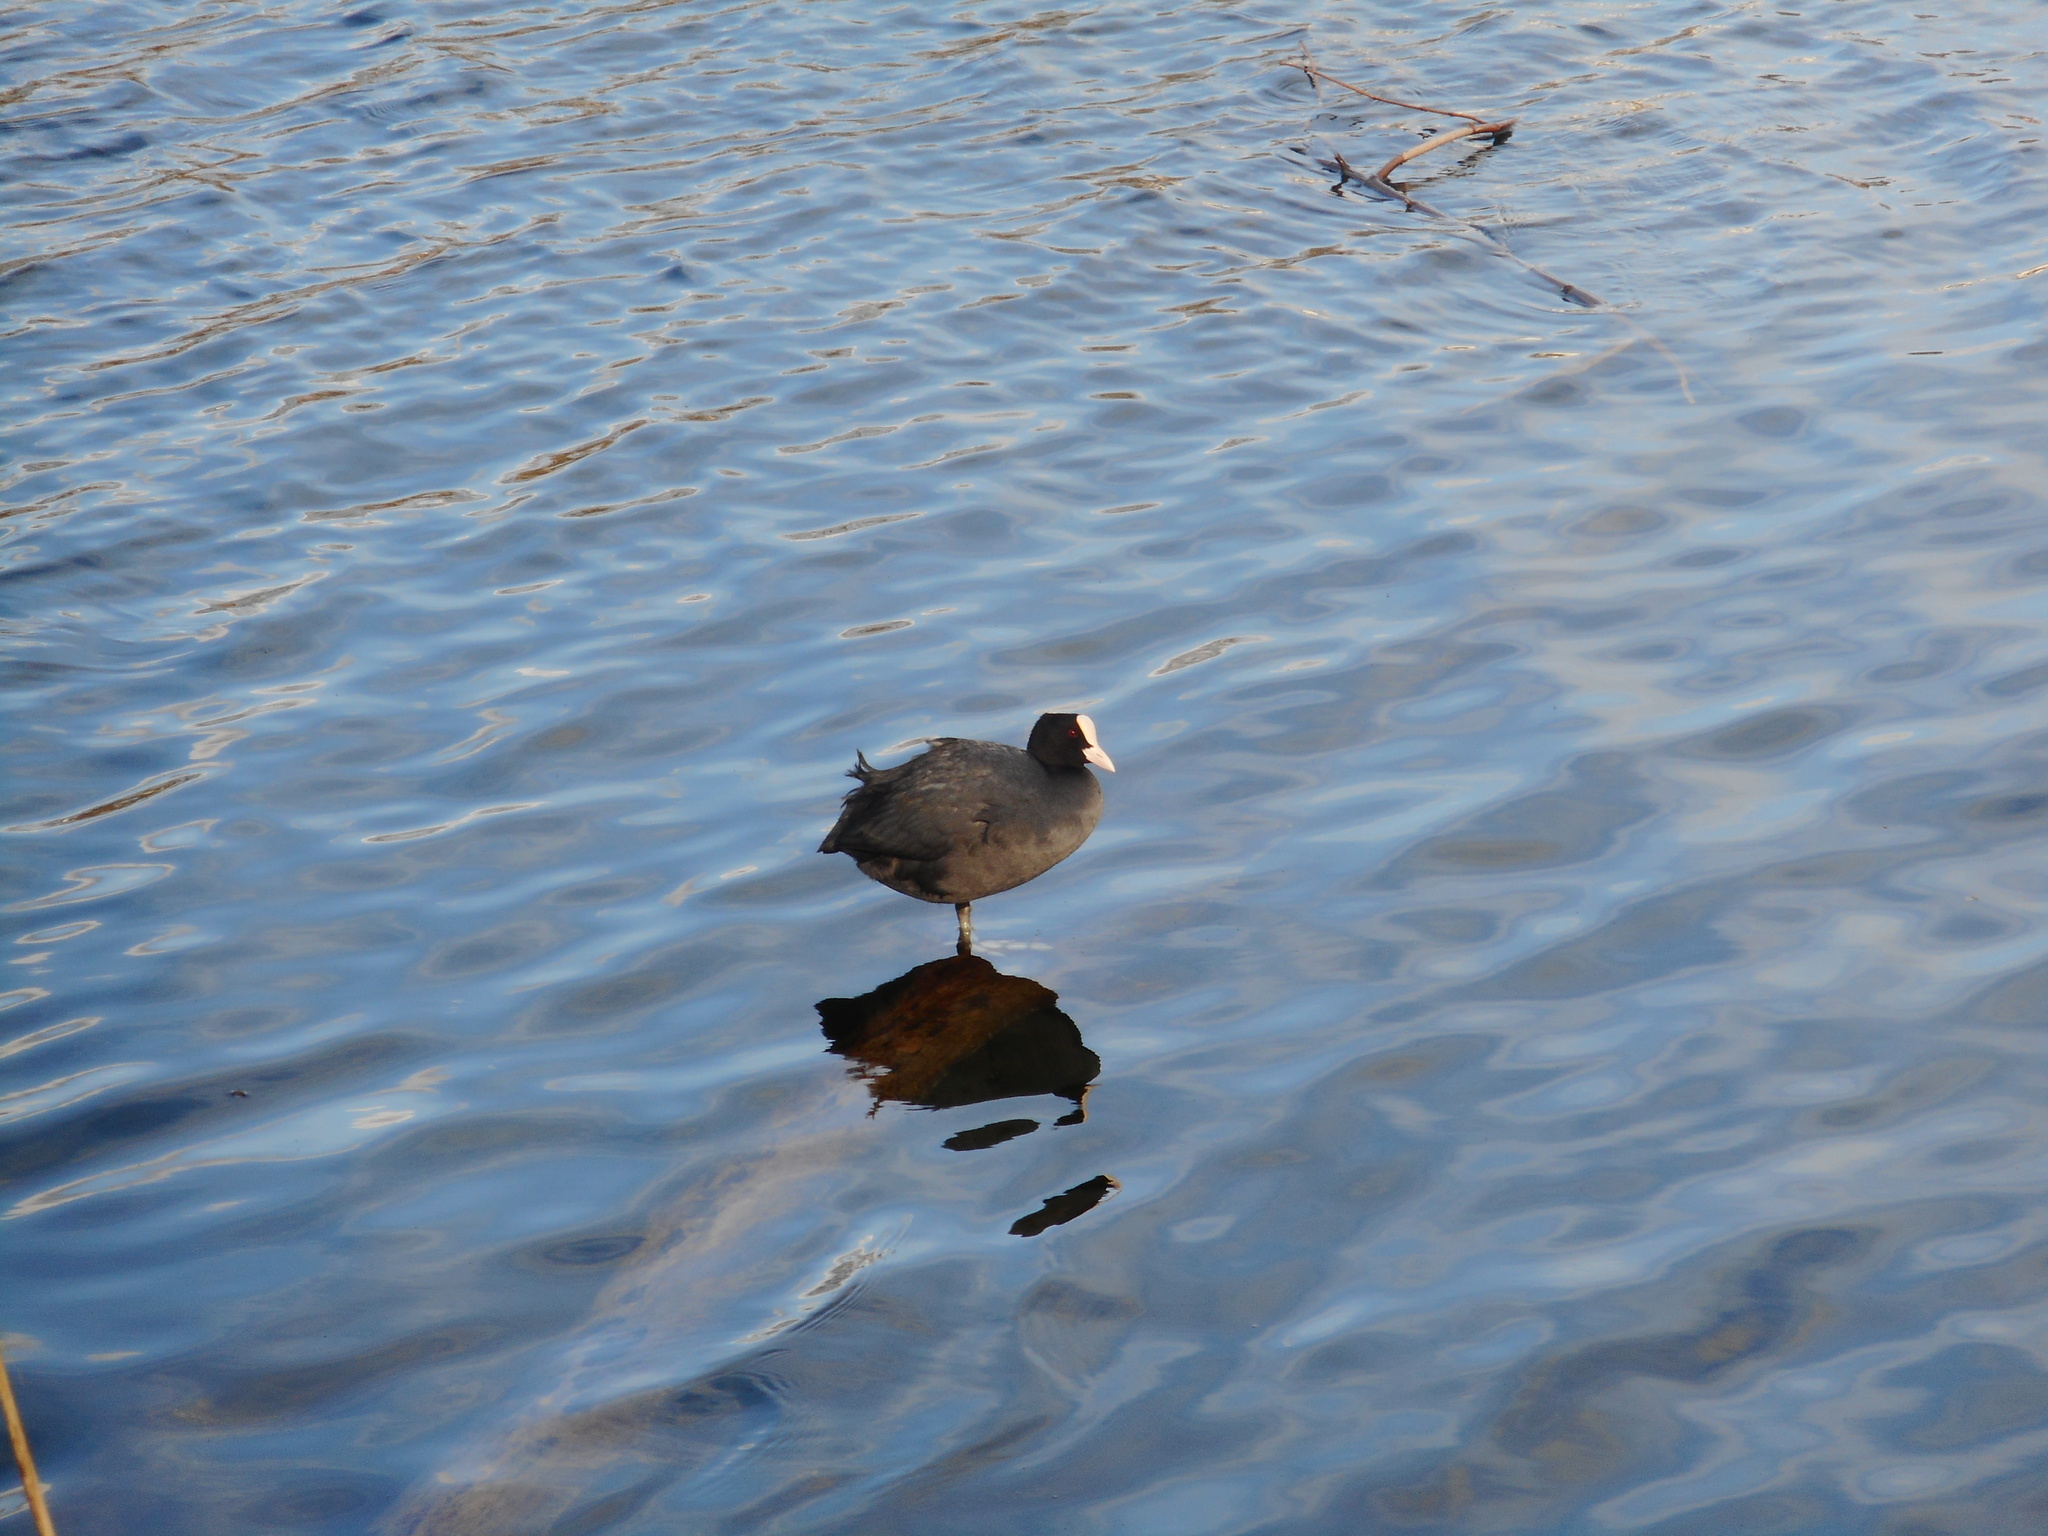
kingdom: Animalia
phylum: Chordata
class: Aves
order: Gruiformes
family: Rallidae
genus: Fulica
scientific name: Fulica atra
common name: Eurasian coot
